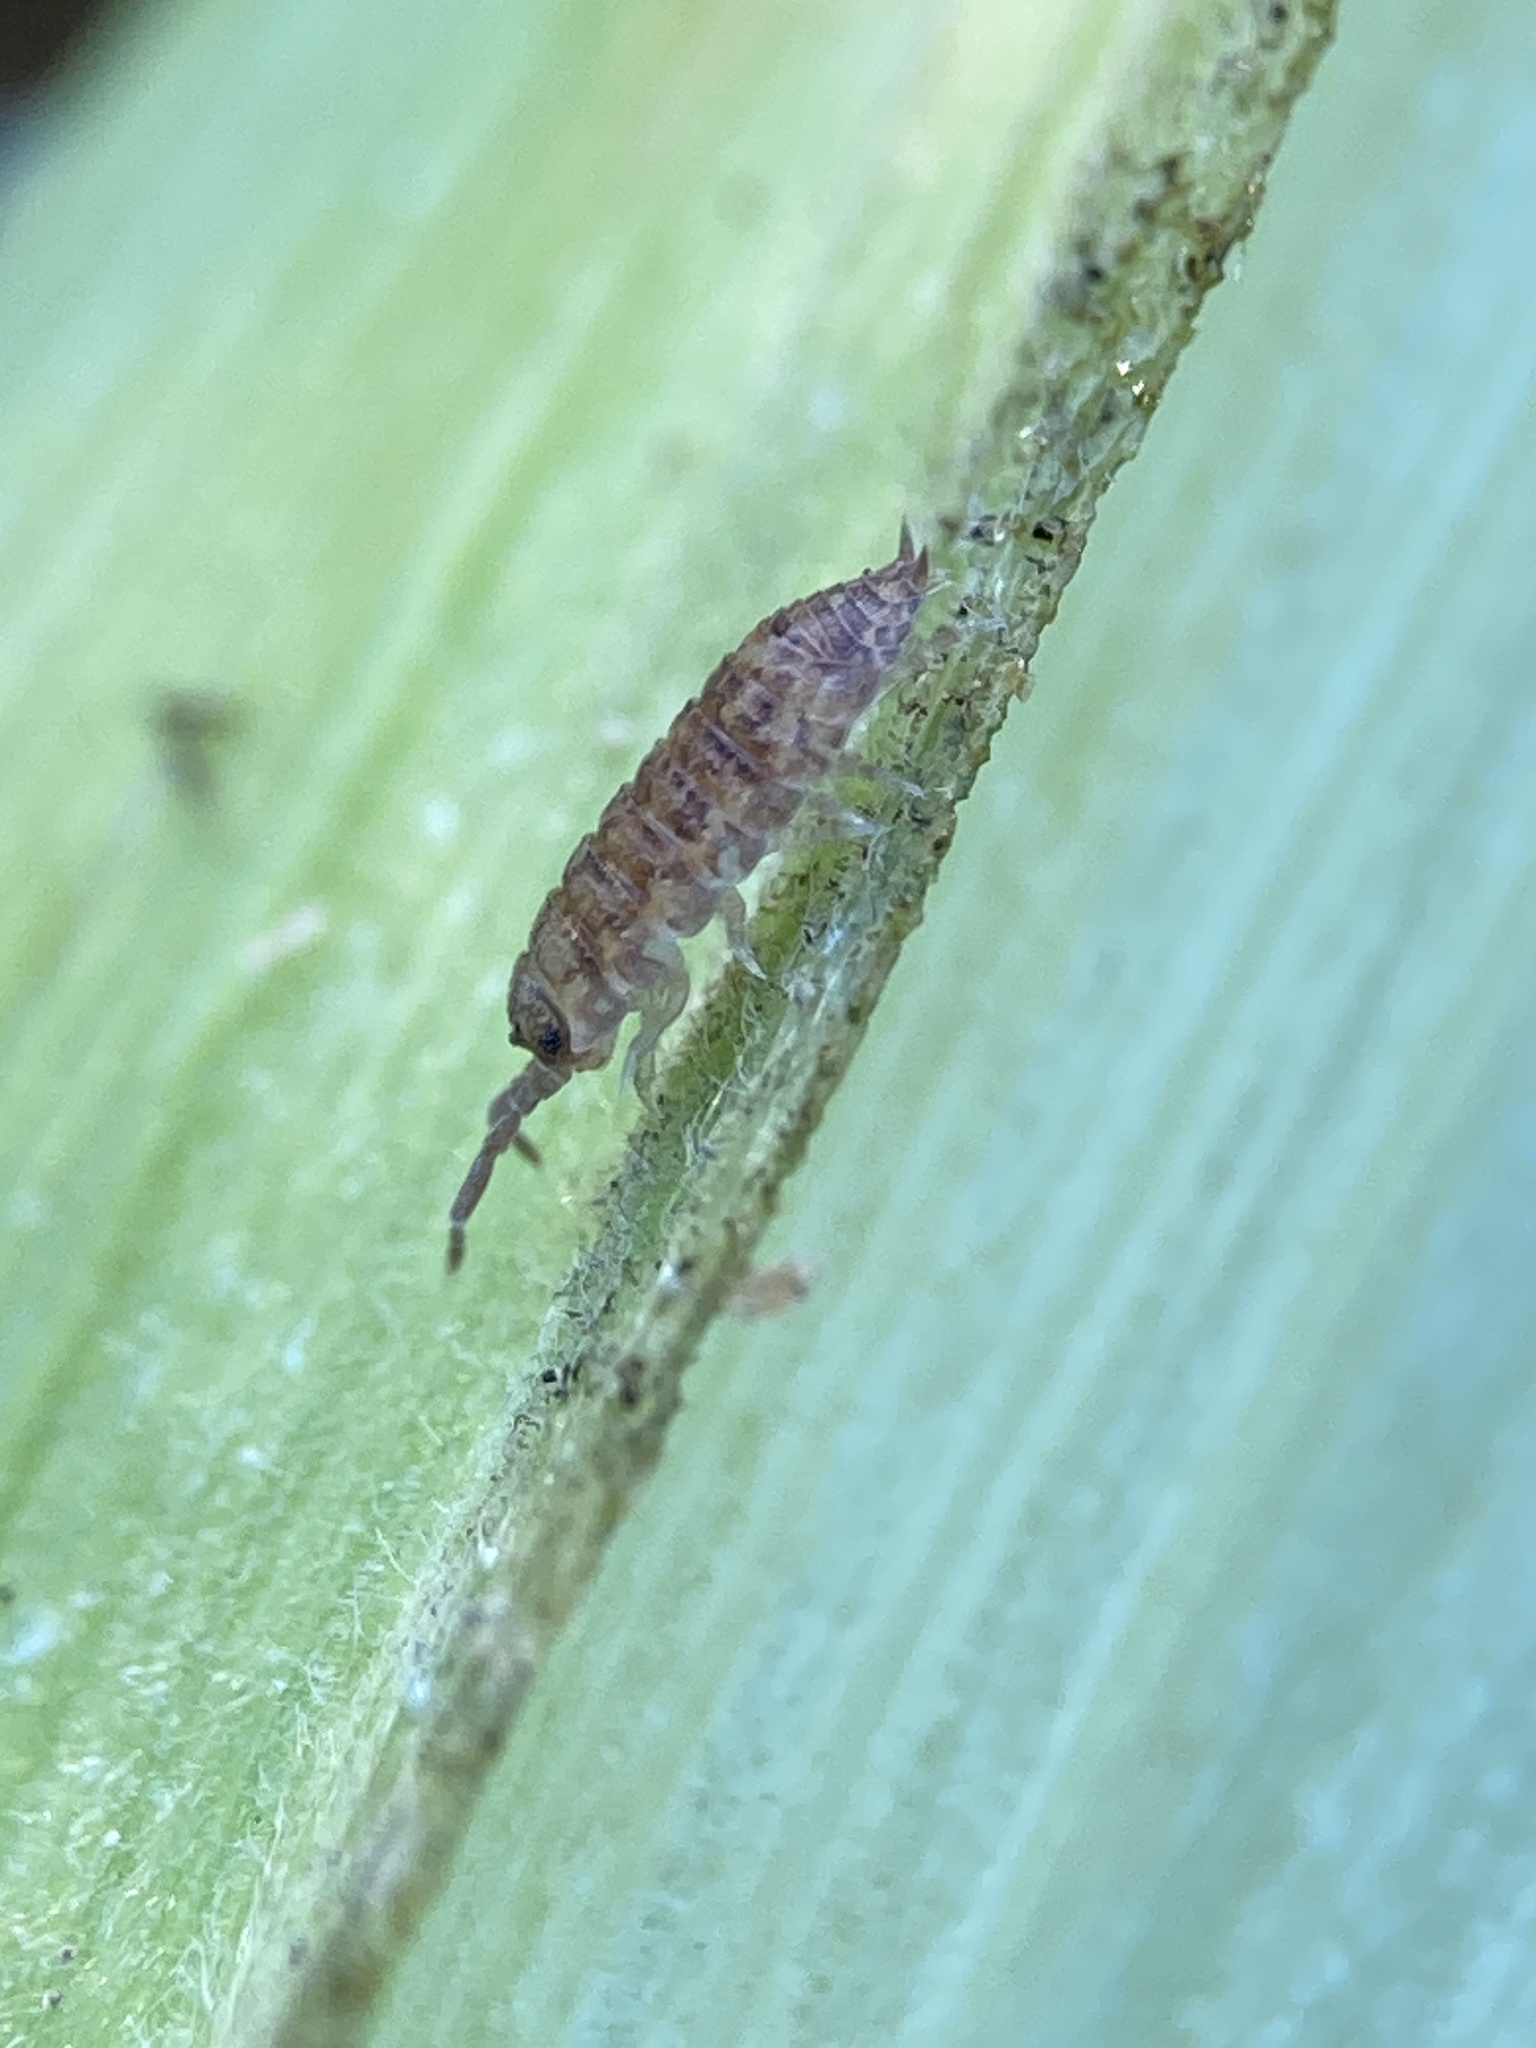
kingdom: Animalia
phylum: Arthropoda
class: Malacostraca
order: Isopoda
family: Porcellionidae
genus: Porcellio
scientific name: Porcellio scaber
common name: Common rough woodlouse
